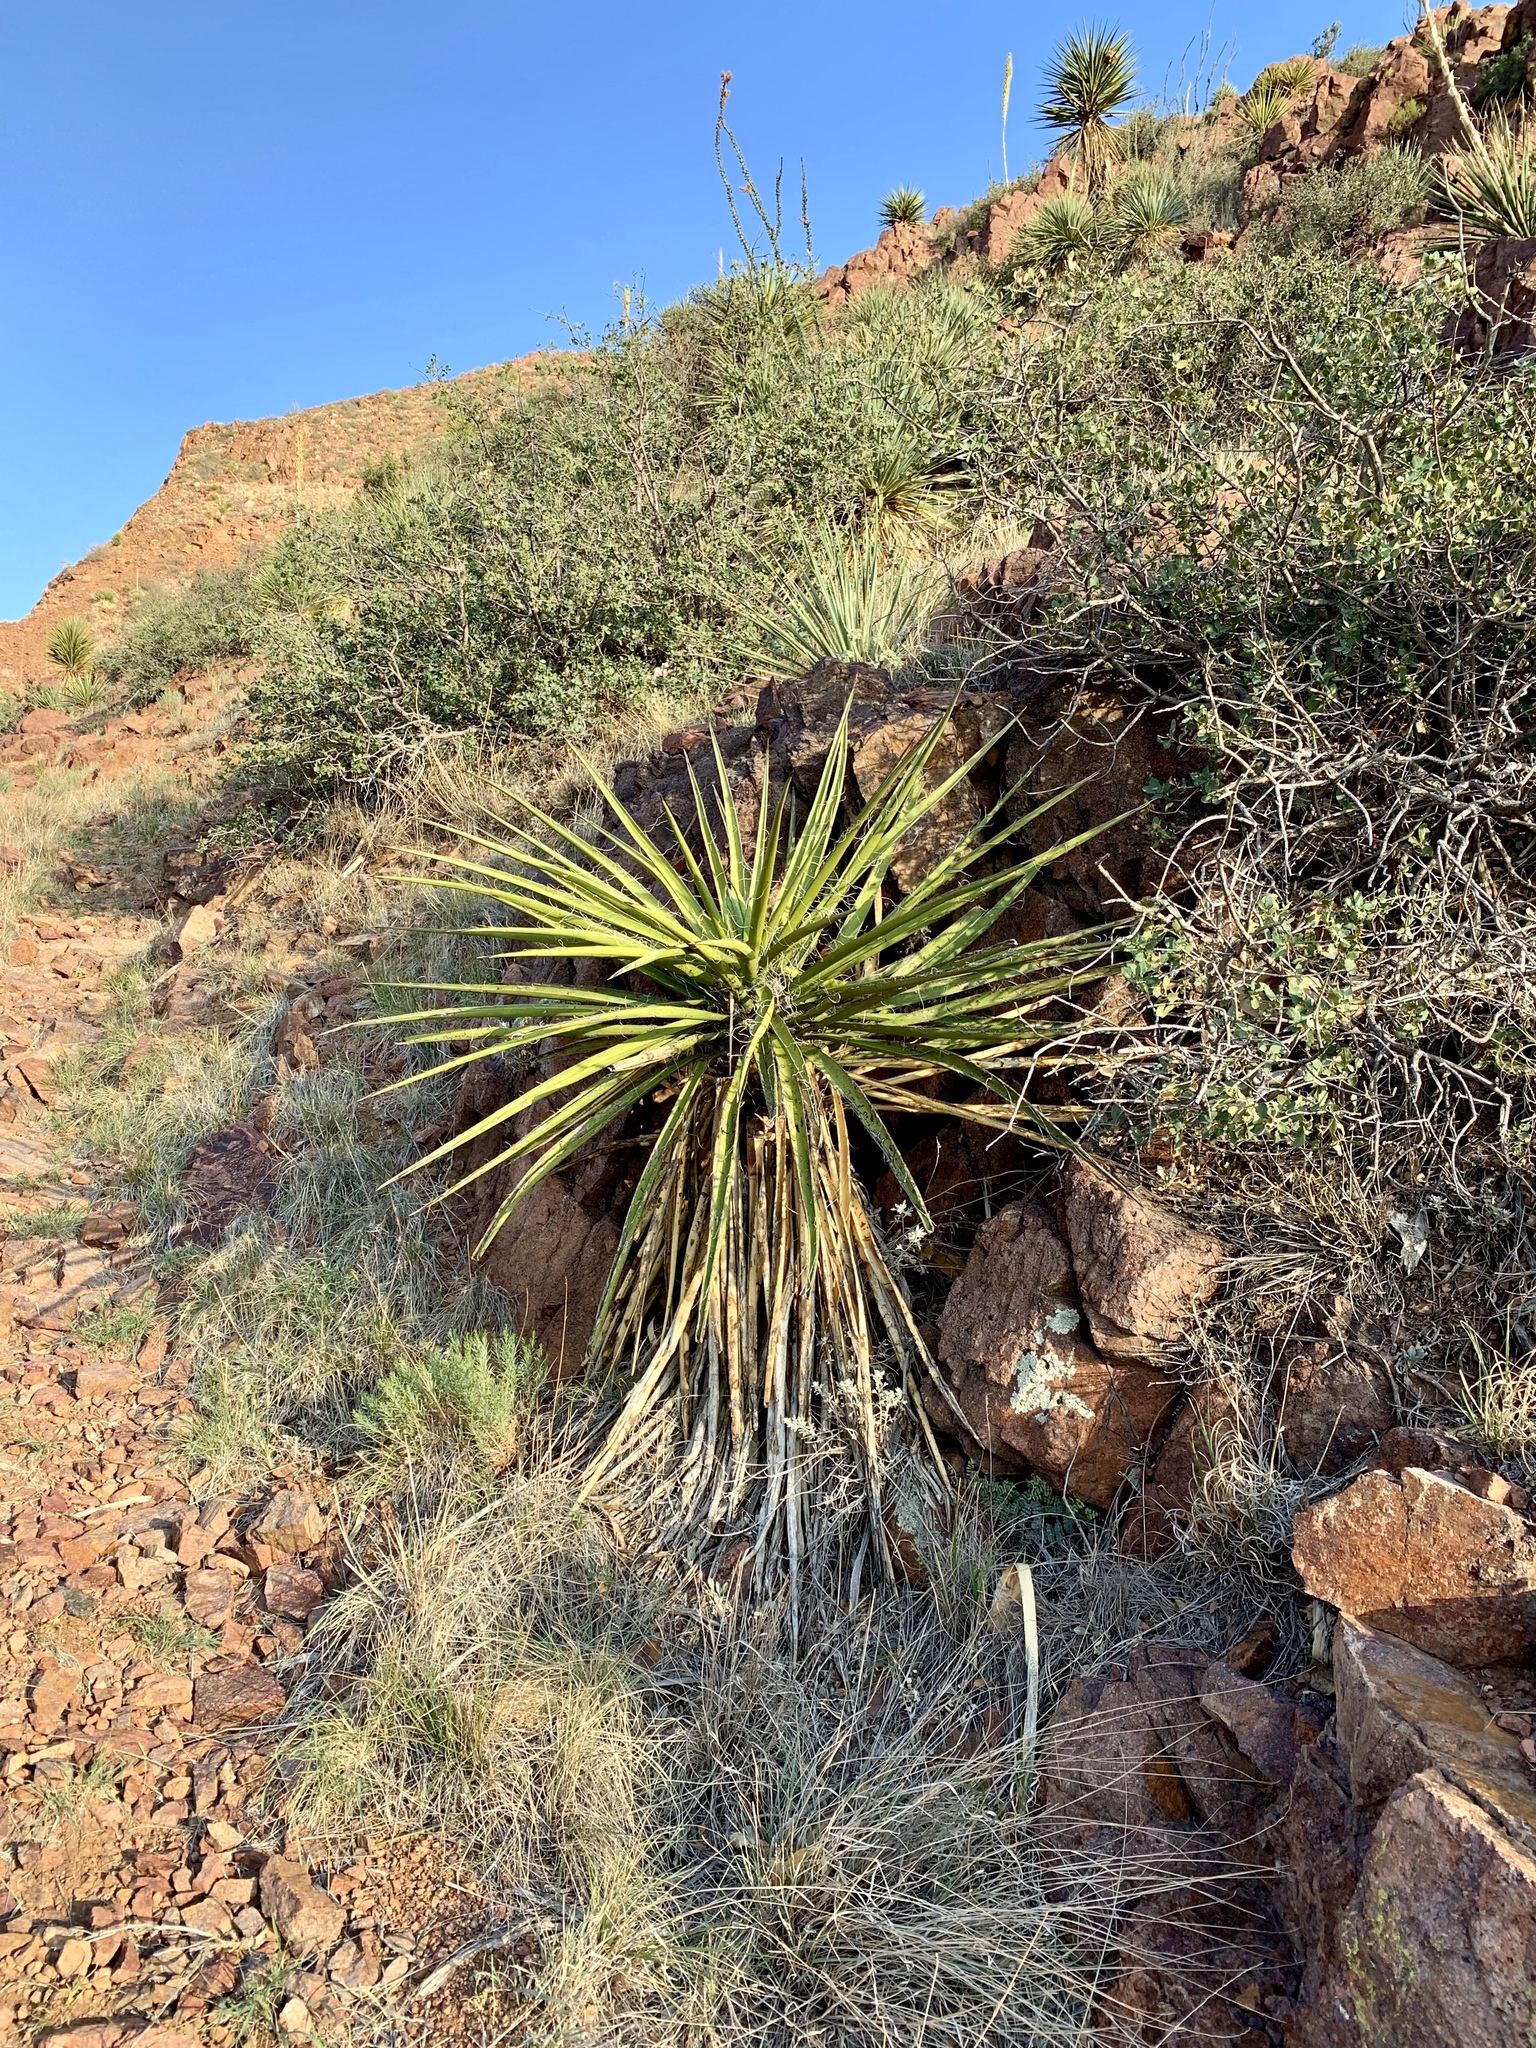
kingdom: Plantae
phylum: Tracheophyta
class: Liliopsida
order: Asparagales
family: Asparagaceae
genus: Yucca
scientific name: Yucca baccata
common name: Banana yucca
